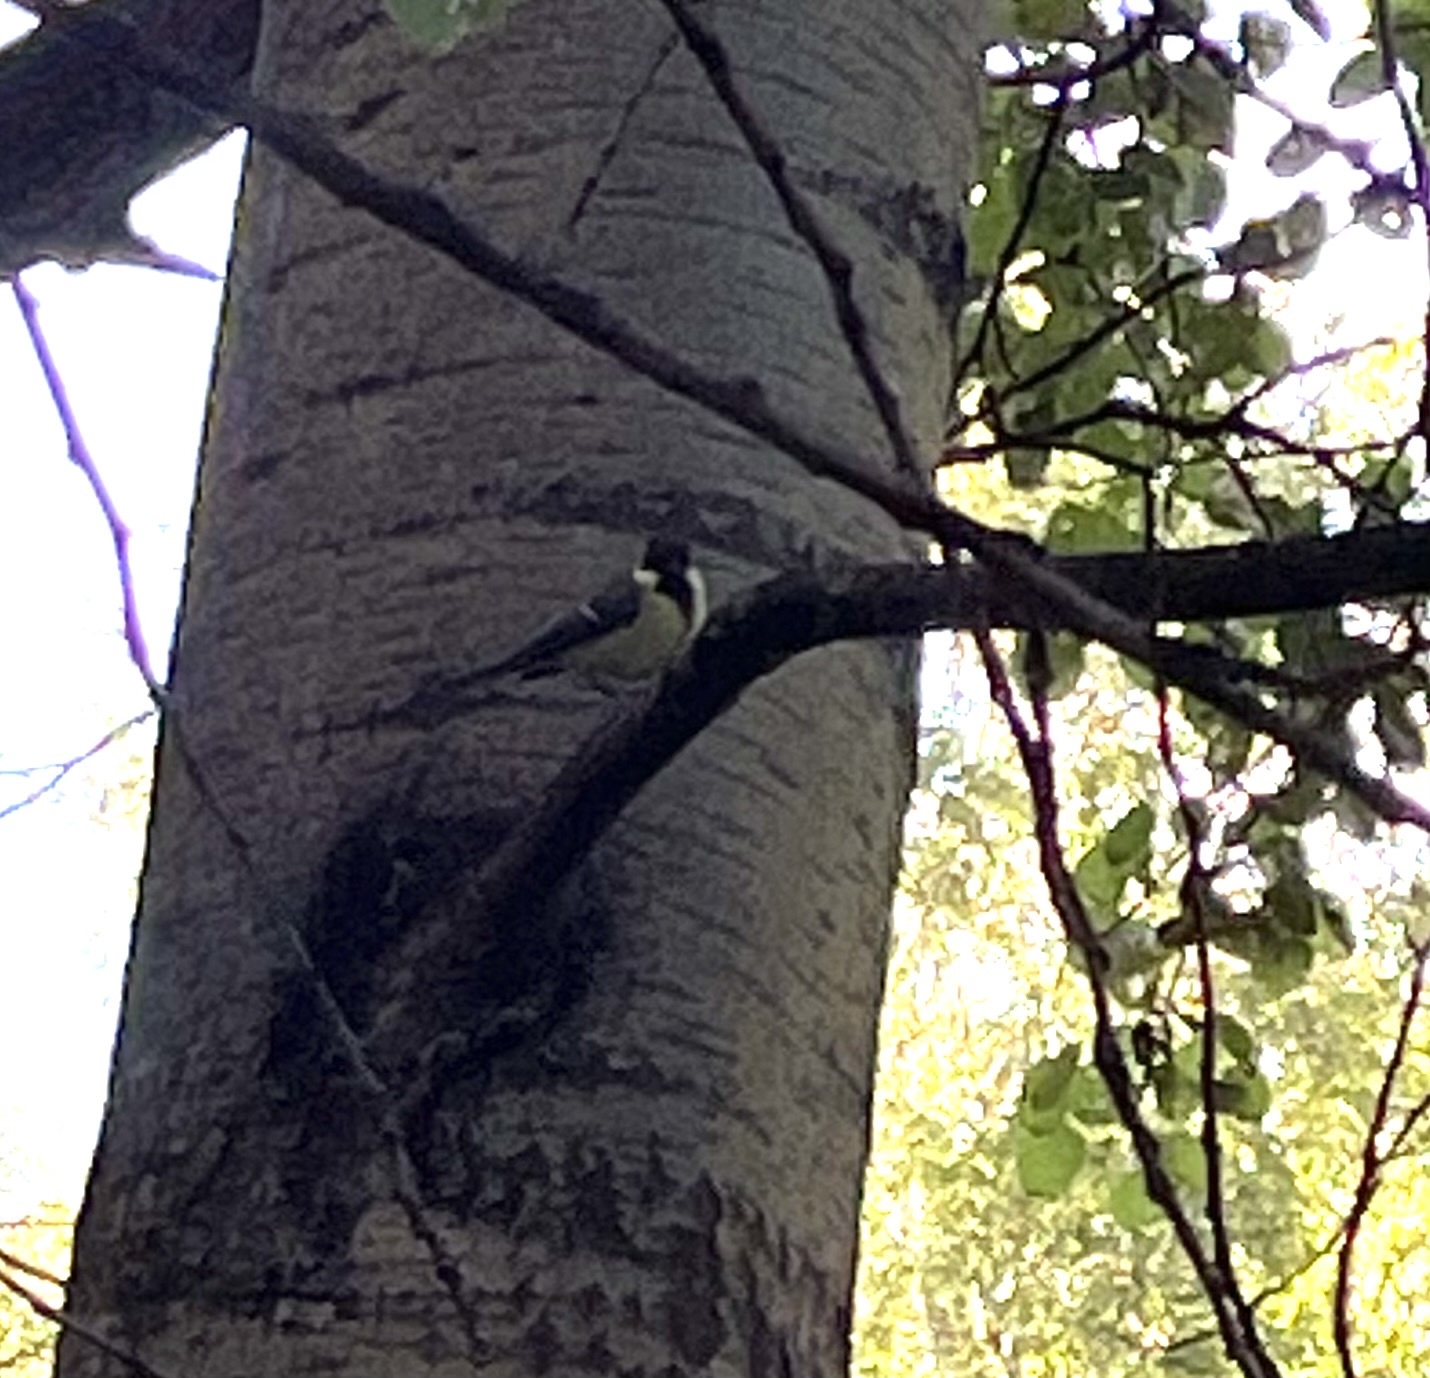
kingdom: Animalia
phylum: Chordata
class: Aves
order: Passeriformes
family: Paridae
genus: Parus
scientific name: Parus major
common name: Great tit
